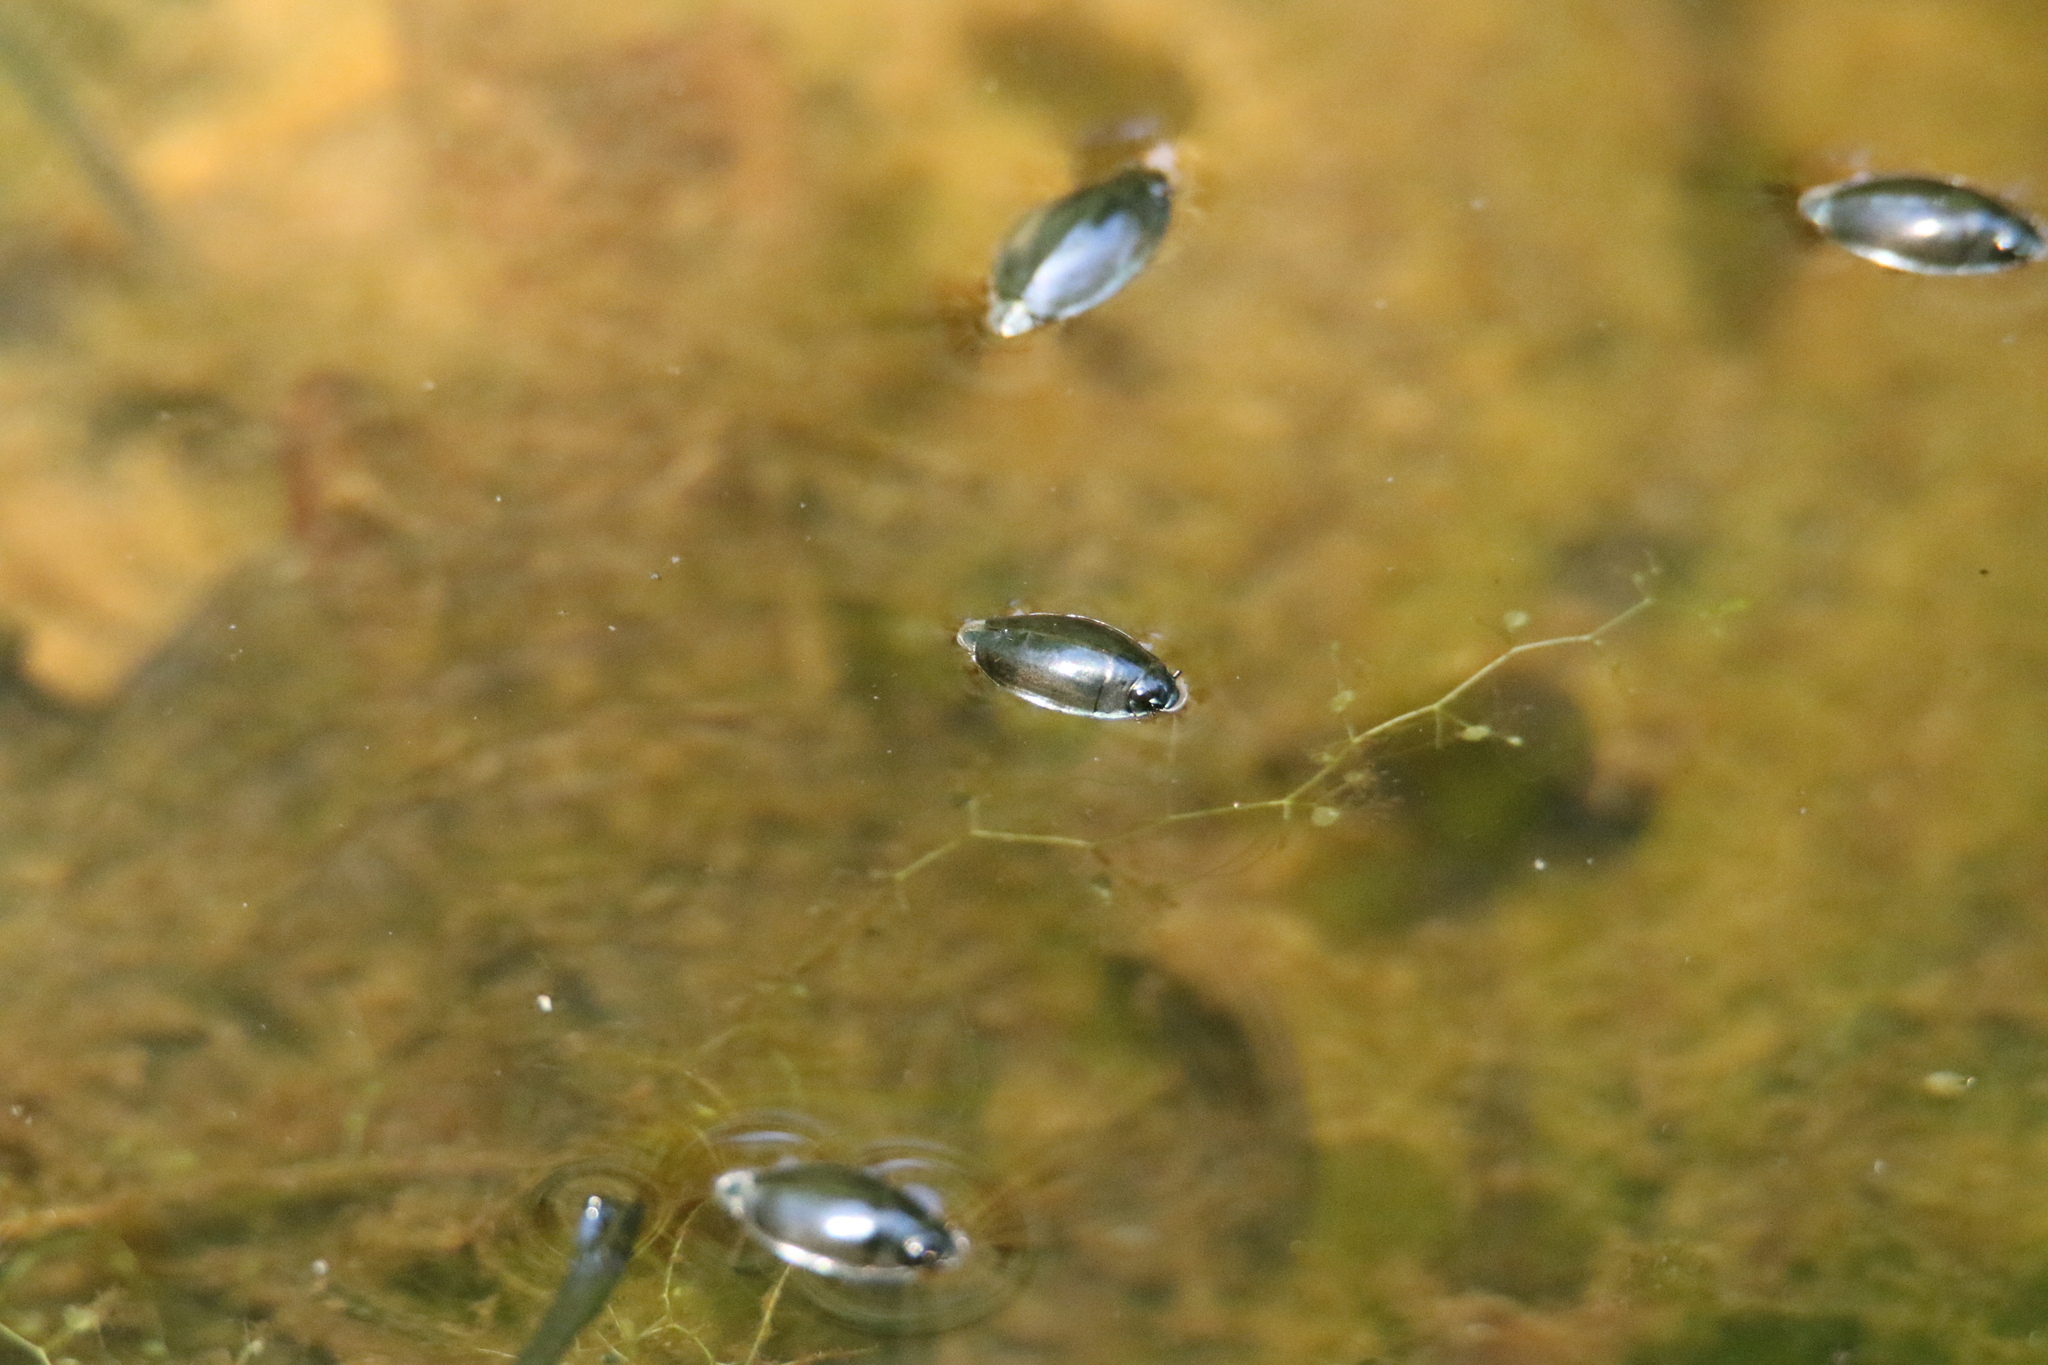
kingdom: Animalia
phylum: Arthropoda
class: Insecta
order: Coleoptera
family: Gyrinidae
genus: Dineutus
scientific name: Dineutus
